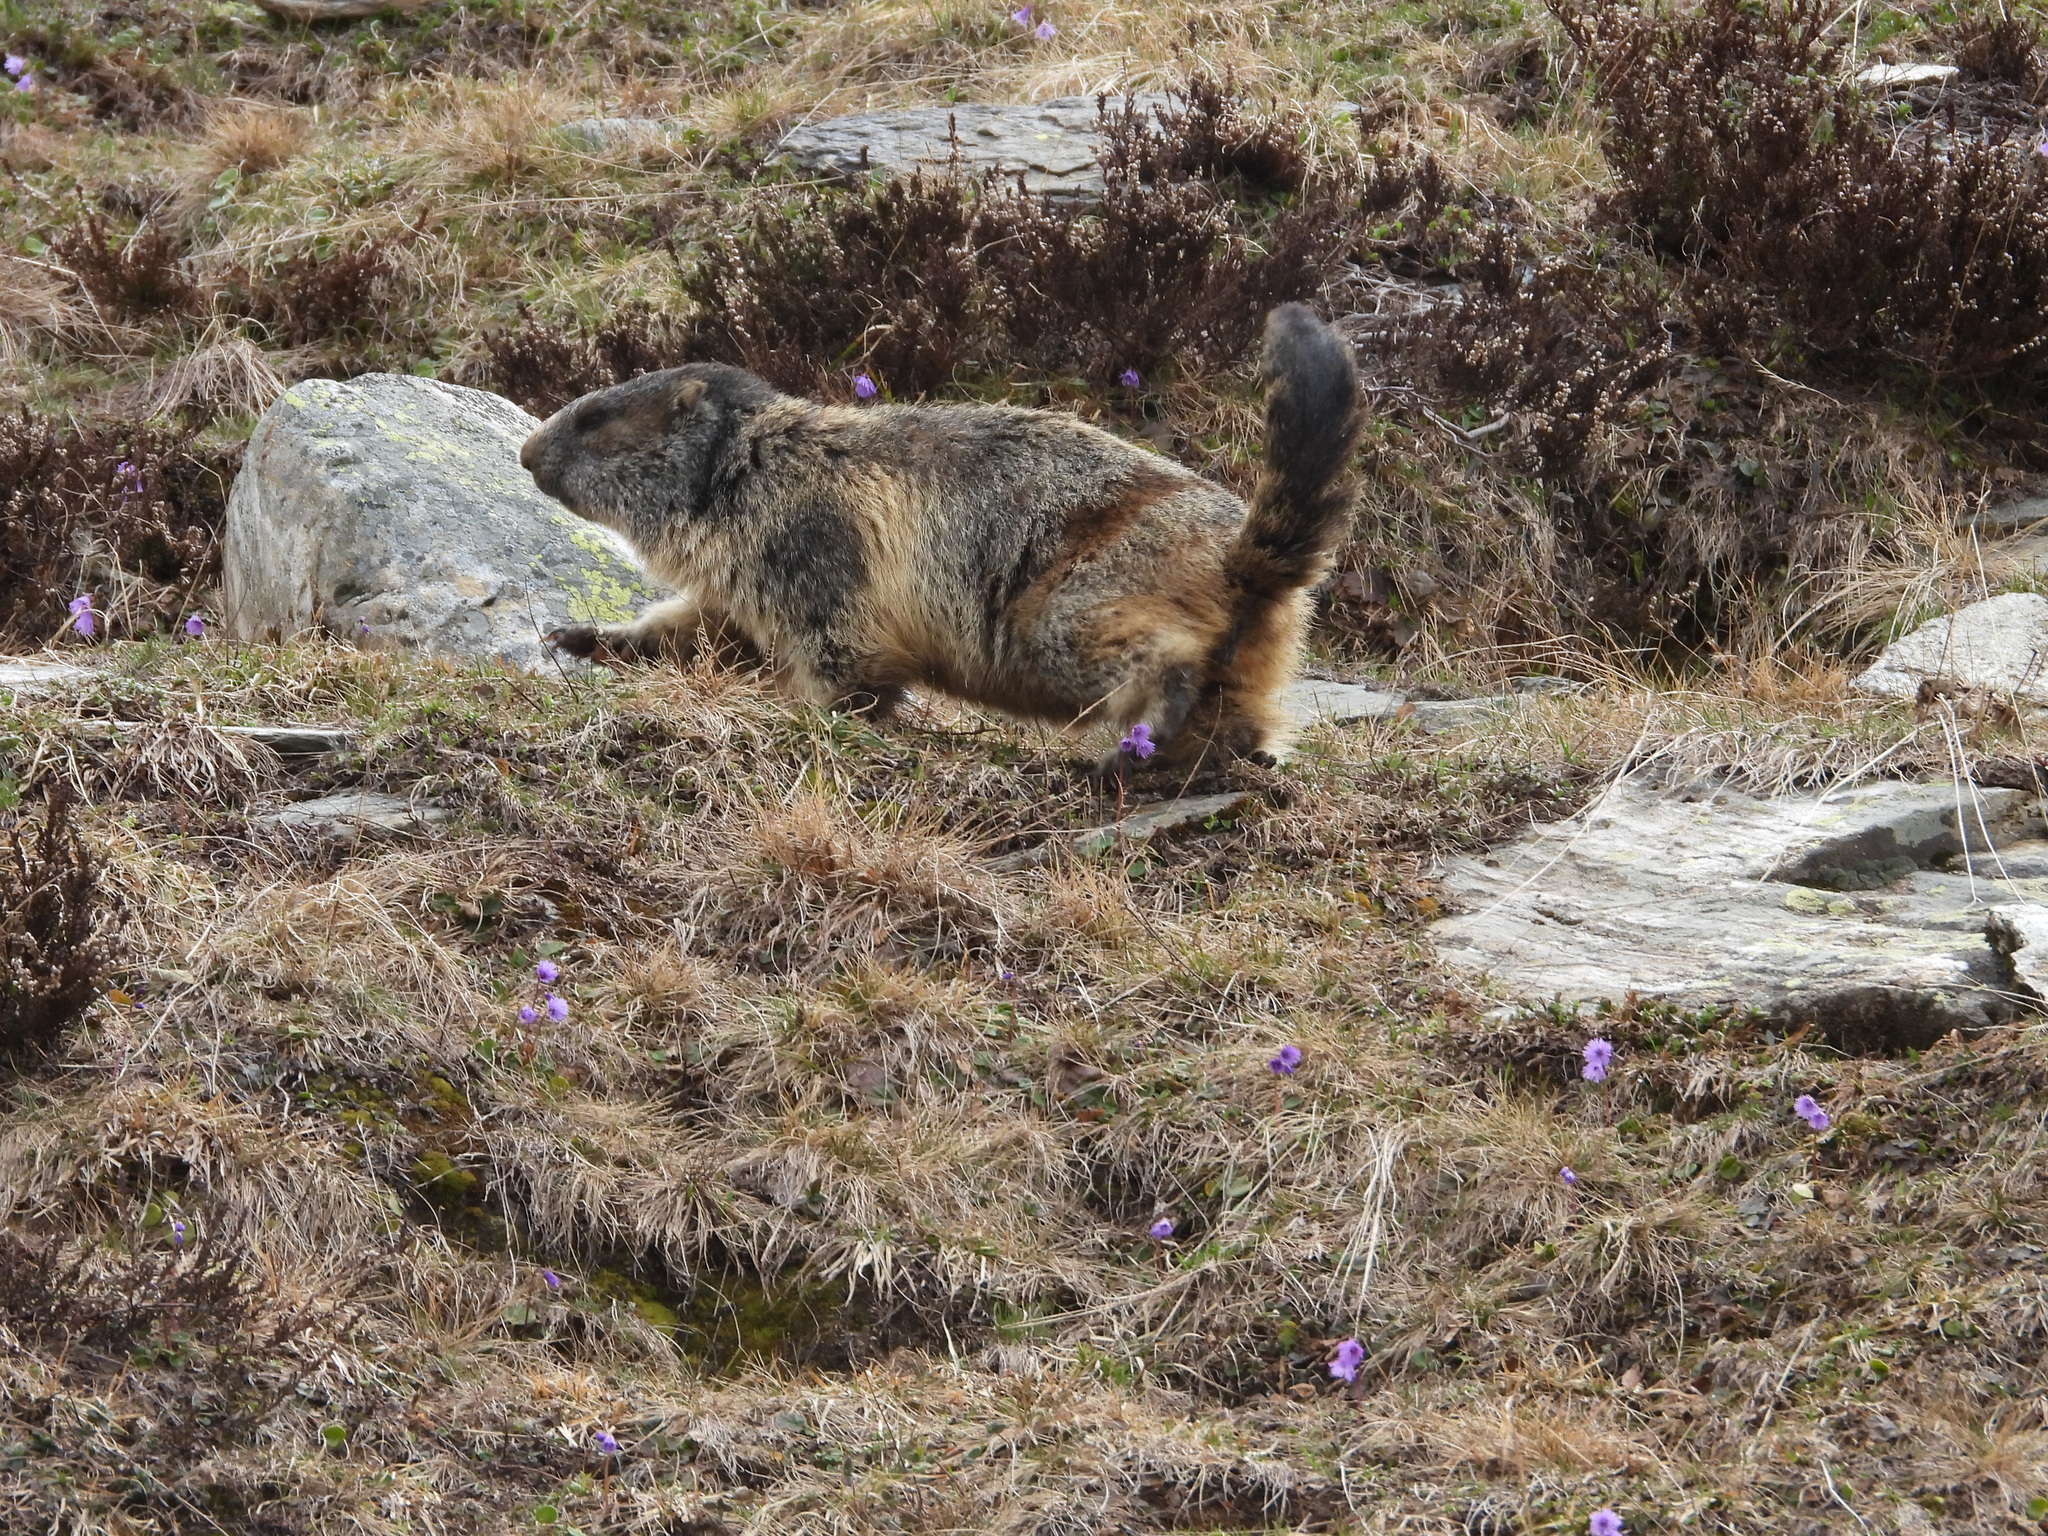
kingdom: Animalia
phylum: Chordata
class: Mammalia
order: Rodentia
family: Sciuridae
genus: Marmota
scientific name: Marmota marmota
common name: Alpine marmot
